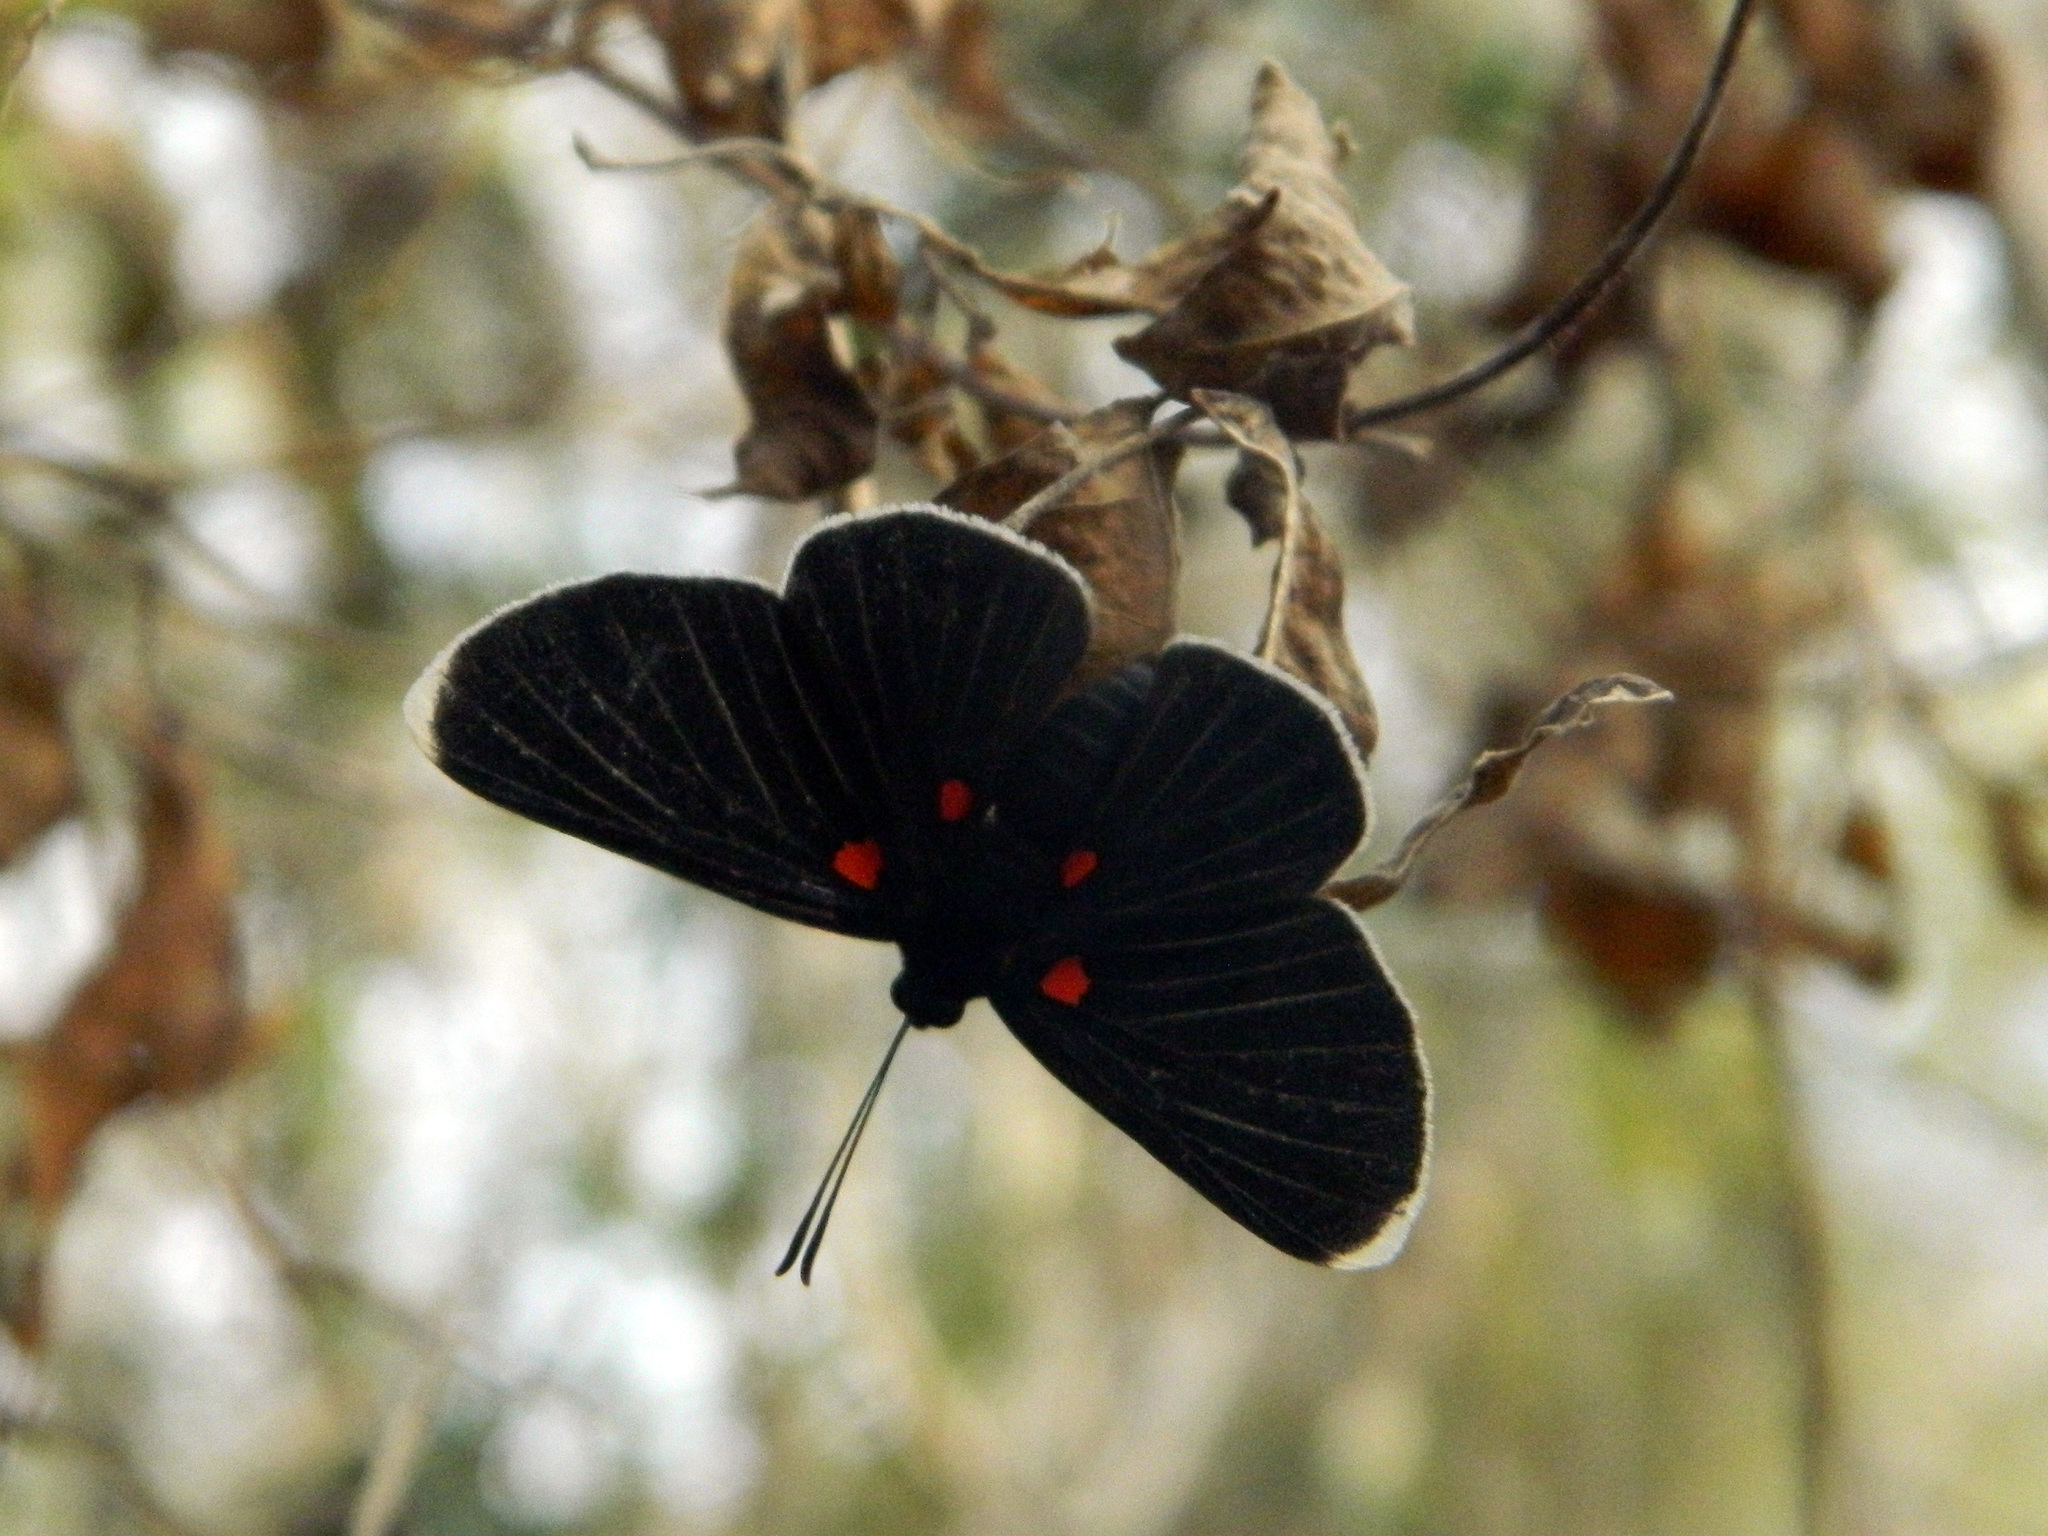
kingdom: Animalia
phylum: Arthropoda
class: Insecta
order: Lepidoptera
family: Lycaenidae
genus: Melanis
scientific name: Melanis
